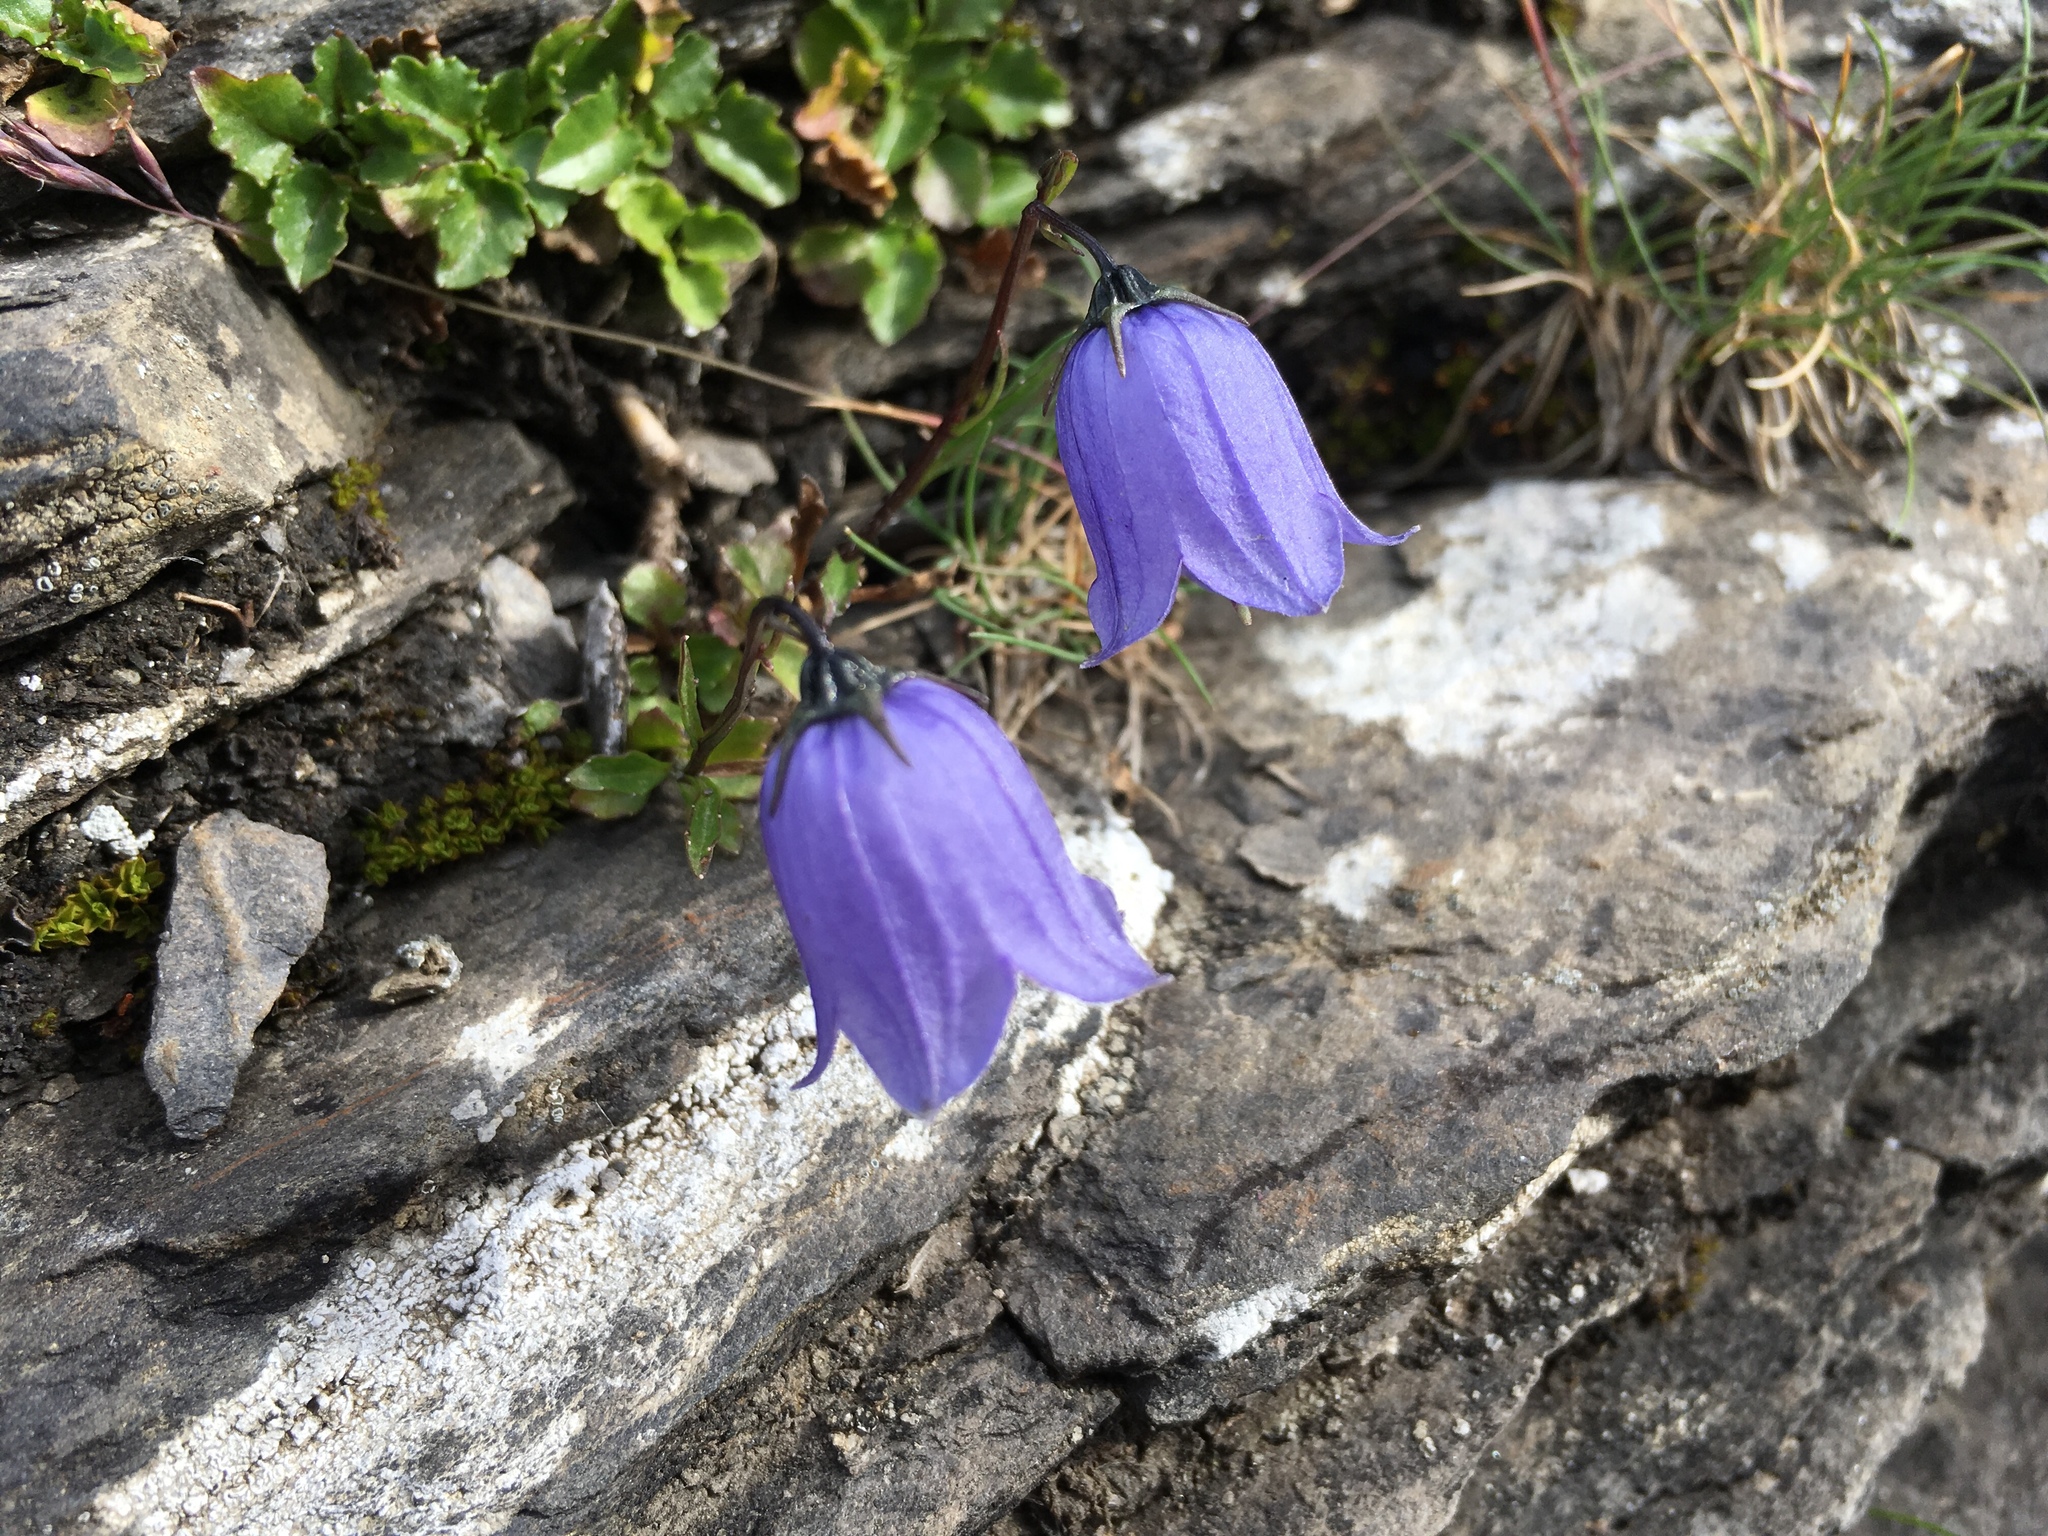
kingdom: Plantae
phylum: Tracheophyta
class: Magnoliopsida
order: Asterales
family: Campanulaceae
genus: Campanula
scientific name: Campanula cochleariifolia
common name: Fairies'-thimbles
